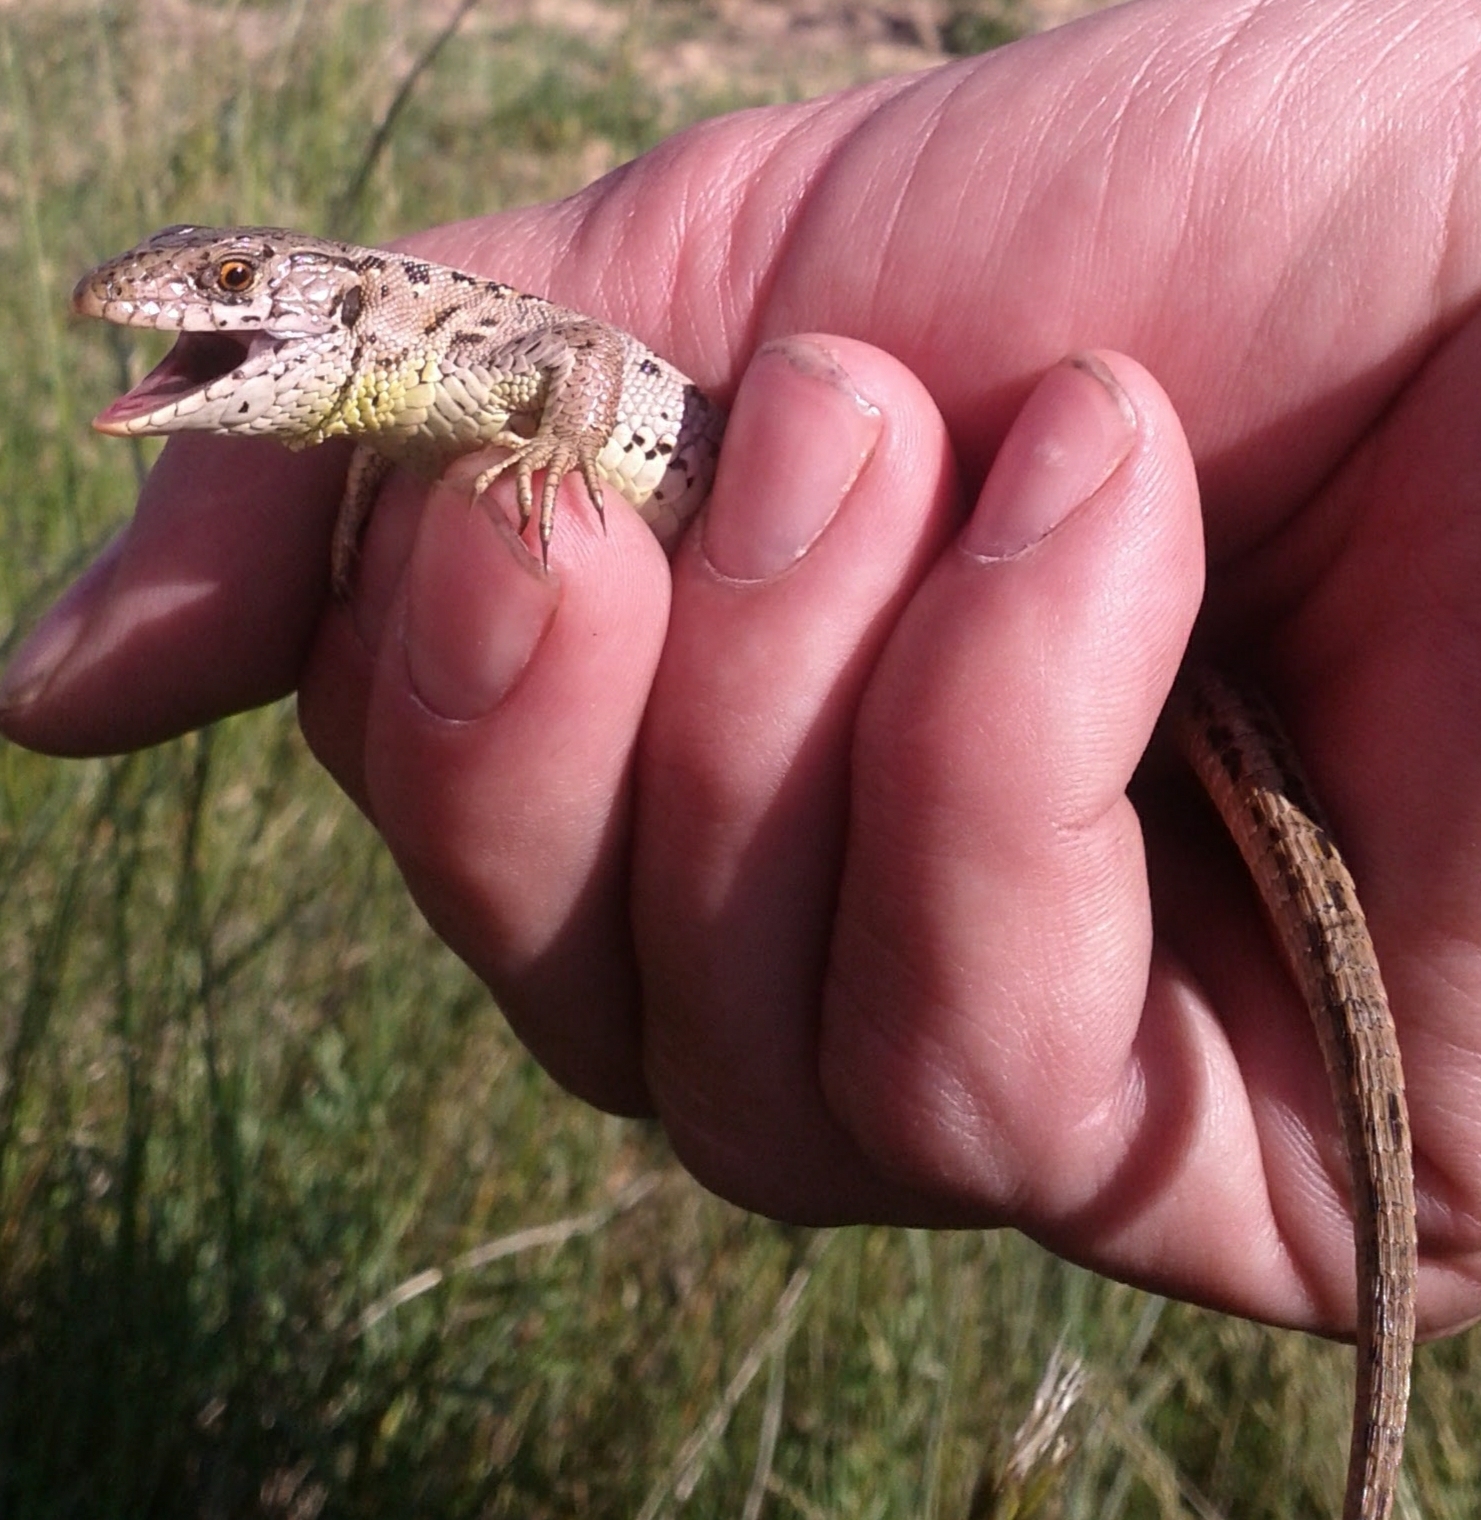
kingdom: Animalia
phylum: Chordata
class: Squamata
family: Lacertidae
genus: Lacerta
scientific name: Lacerta agilis
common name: Sand lizard
